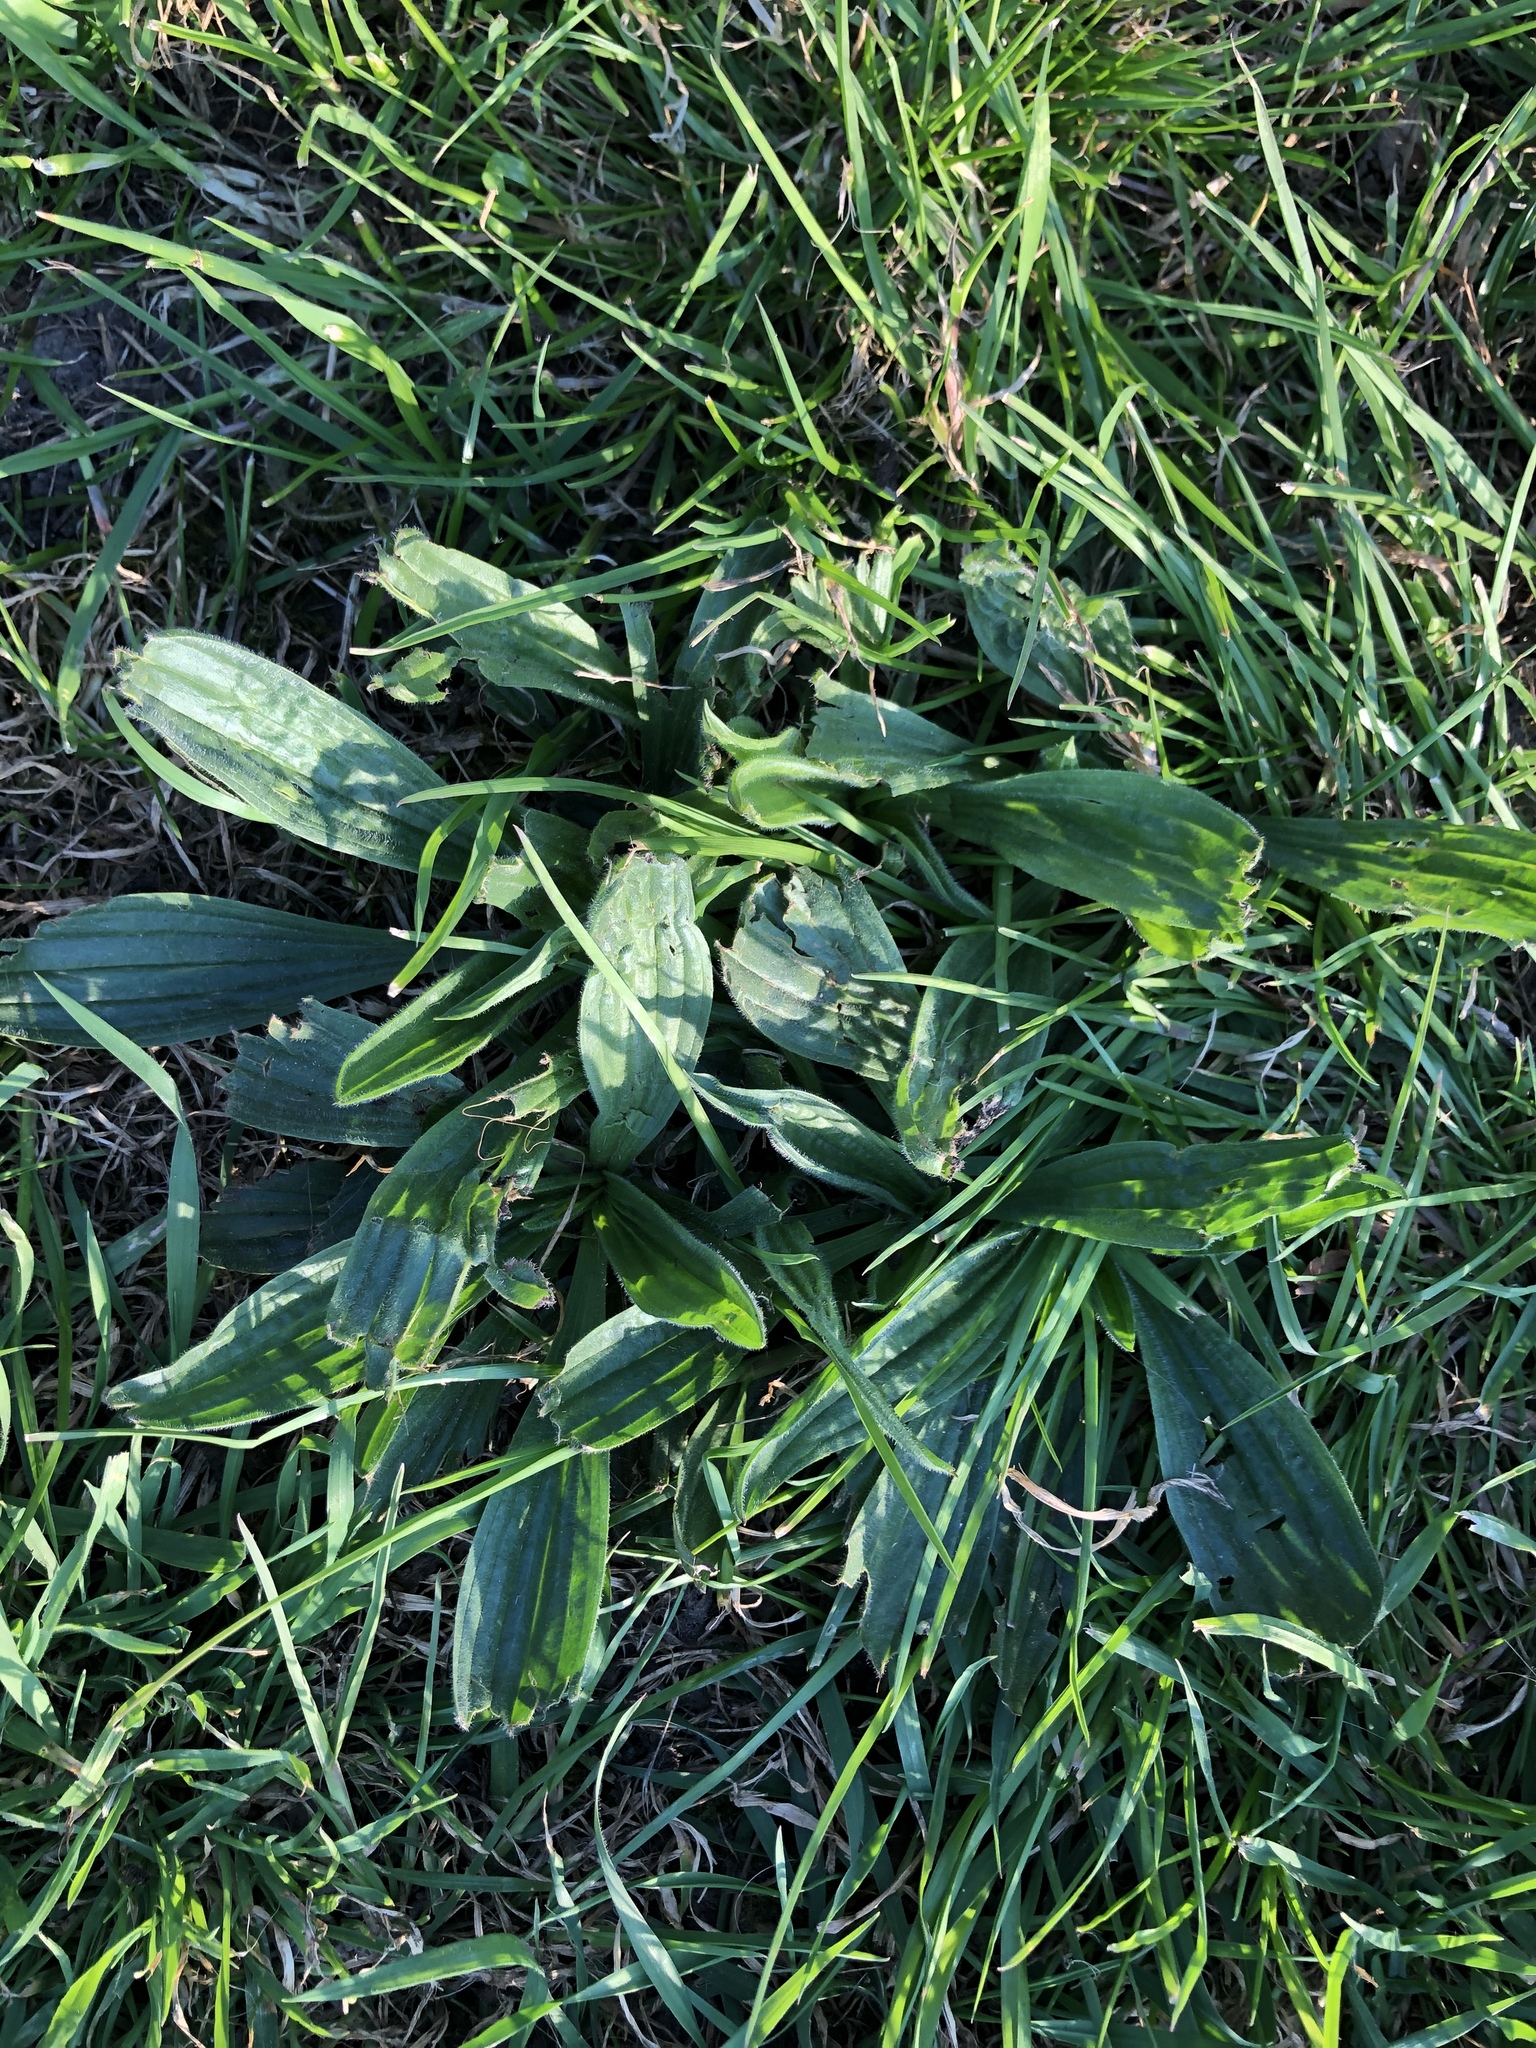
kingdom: Plantae
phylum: Tracheophyta
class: Magnoliopsida
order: Lamiales
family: Plantaginaceae
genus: Plantago
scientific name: Plantago lanceolata
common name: Ribwort plantain
